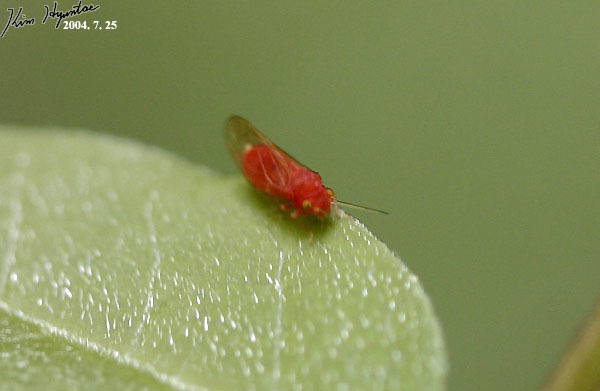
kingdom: Animalia
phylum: Arthropoda
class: Insecta
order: Hemiptera
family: Psyllidae
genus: Cacopsylla
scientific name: Cacopsylla coccinea
